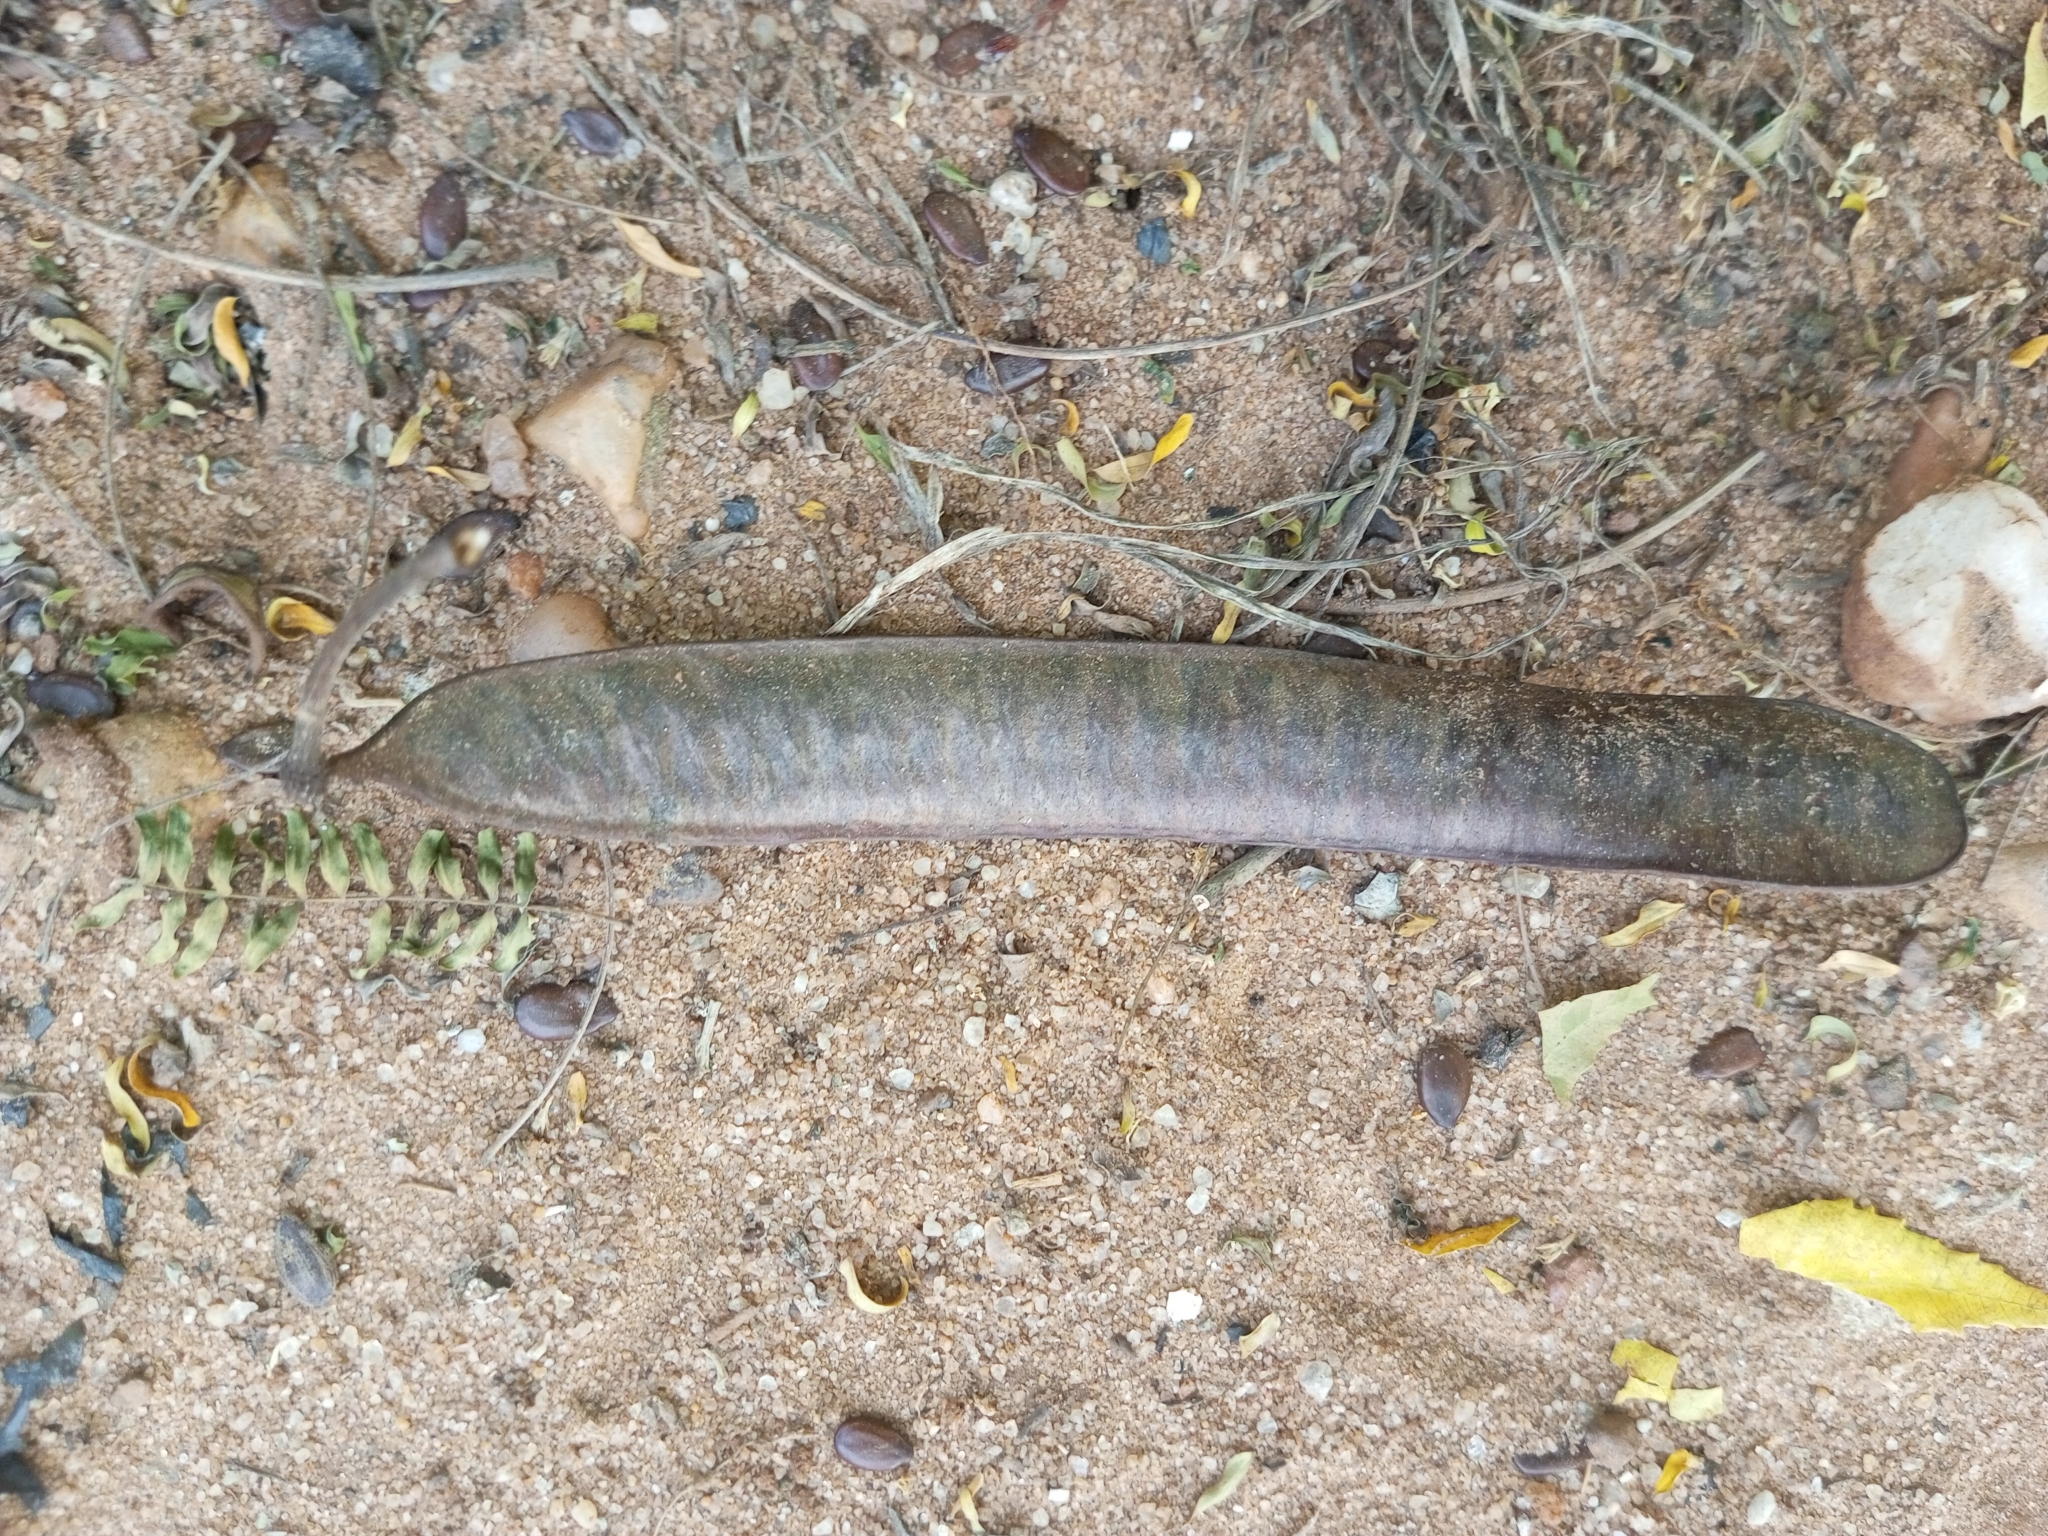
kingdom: Plantae
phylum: Tracheophyta
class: Magnoliopsida
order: Fabales
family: Fabaceae
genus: Leucaena
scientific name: Leucaena leucocephala
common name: White leadtree
